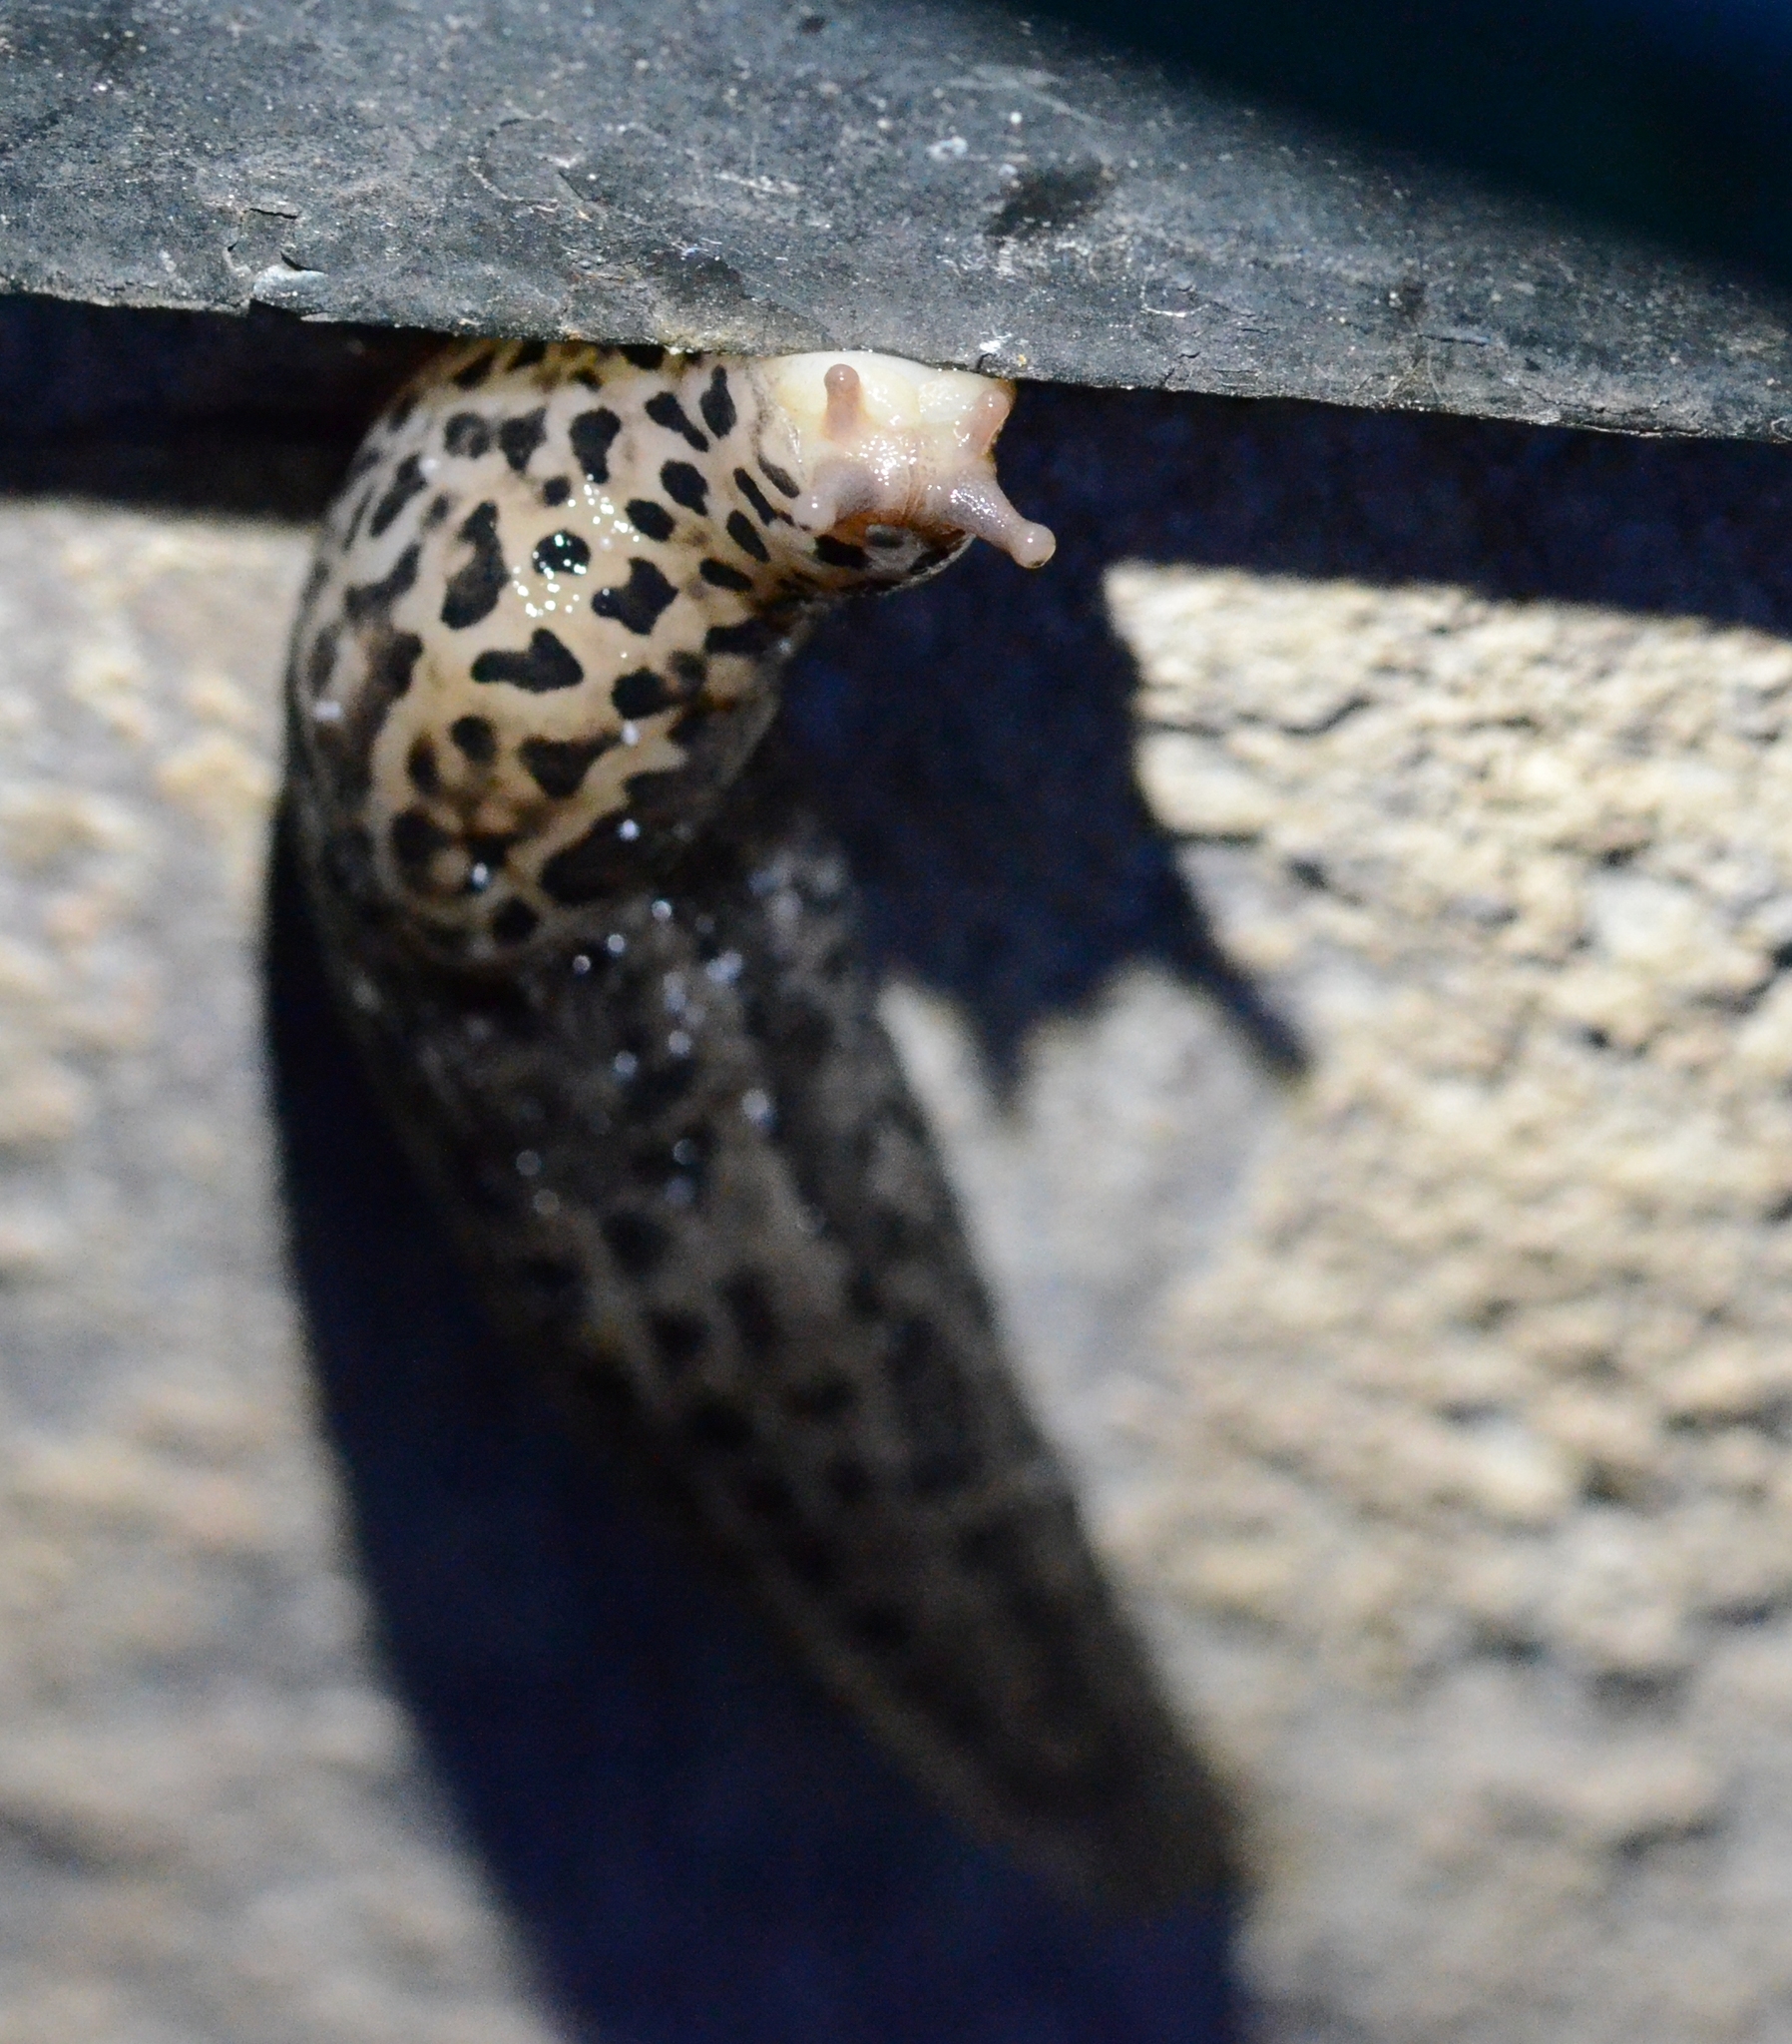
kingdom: Animalia
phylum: Mollusca
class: Gastropoda
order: Stylommatophora
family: Limacidae
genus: Limax
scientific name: Limax maximus
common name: Great grey slug
